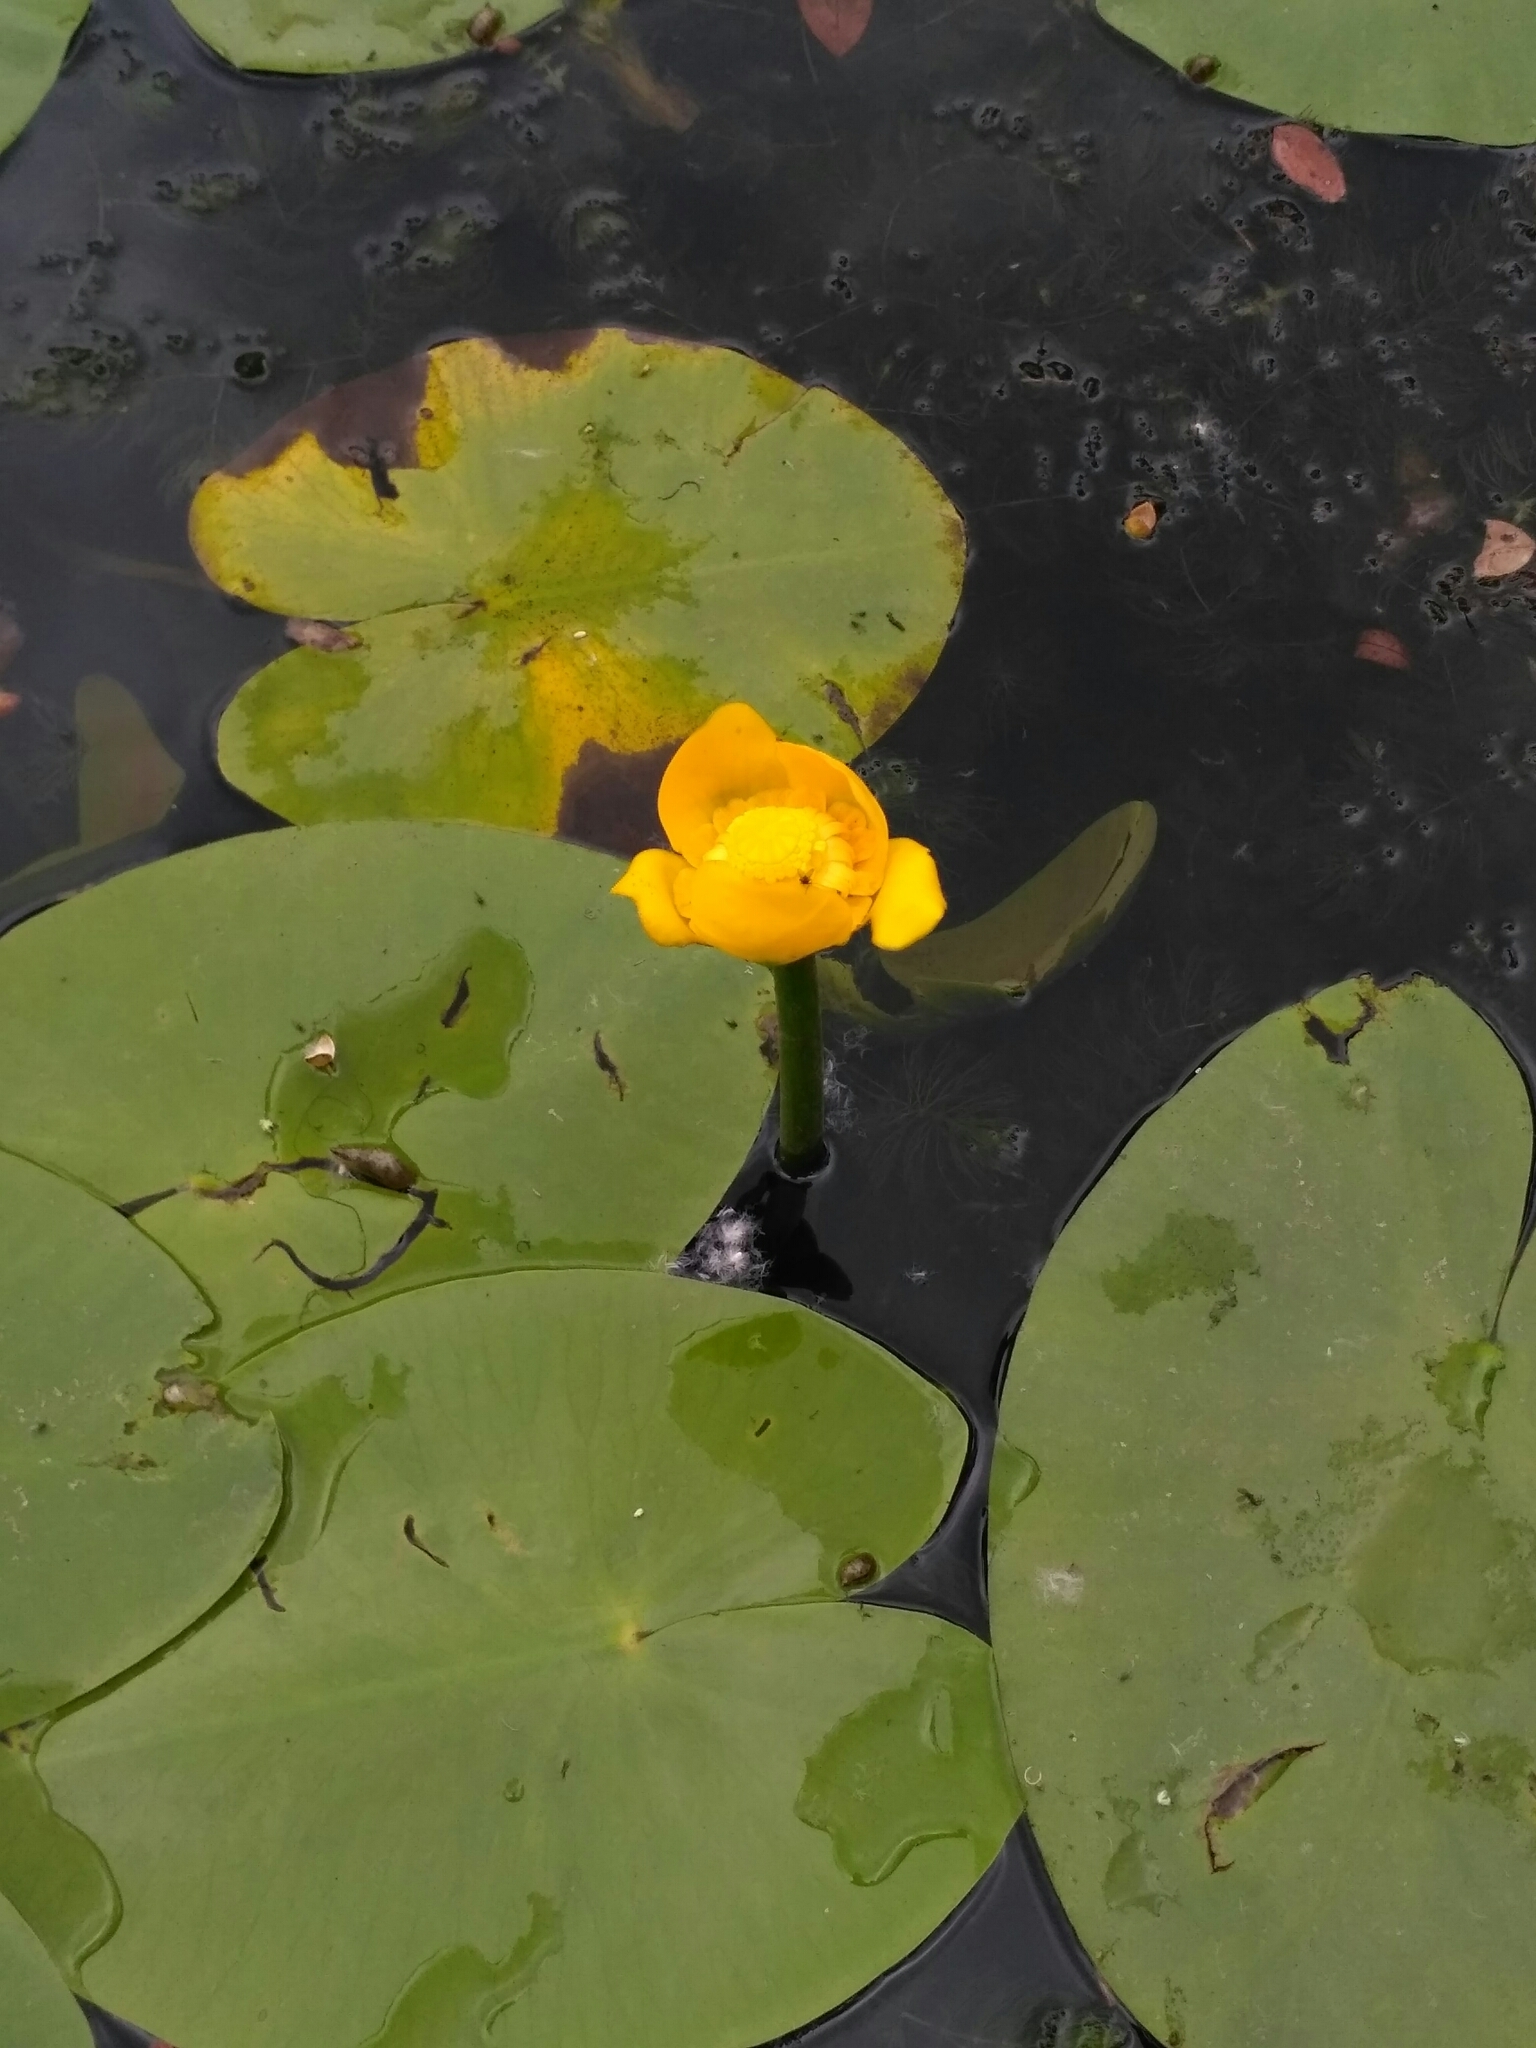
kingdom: Plantae
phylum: Tracheophyta
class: Magnoliopsida
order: Nymphaeales
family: Nymphaeaceae
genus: Nuphar
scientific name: Nuphar lutea
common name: Yellow water-lily
